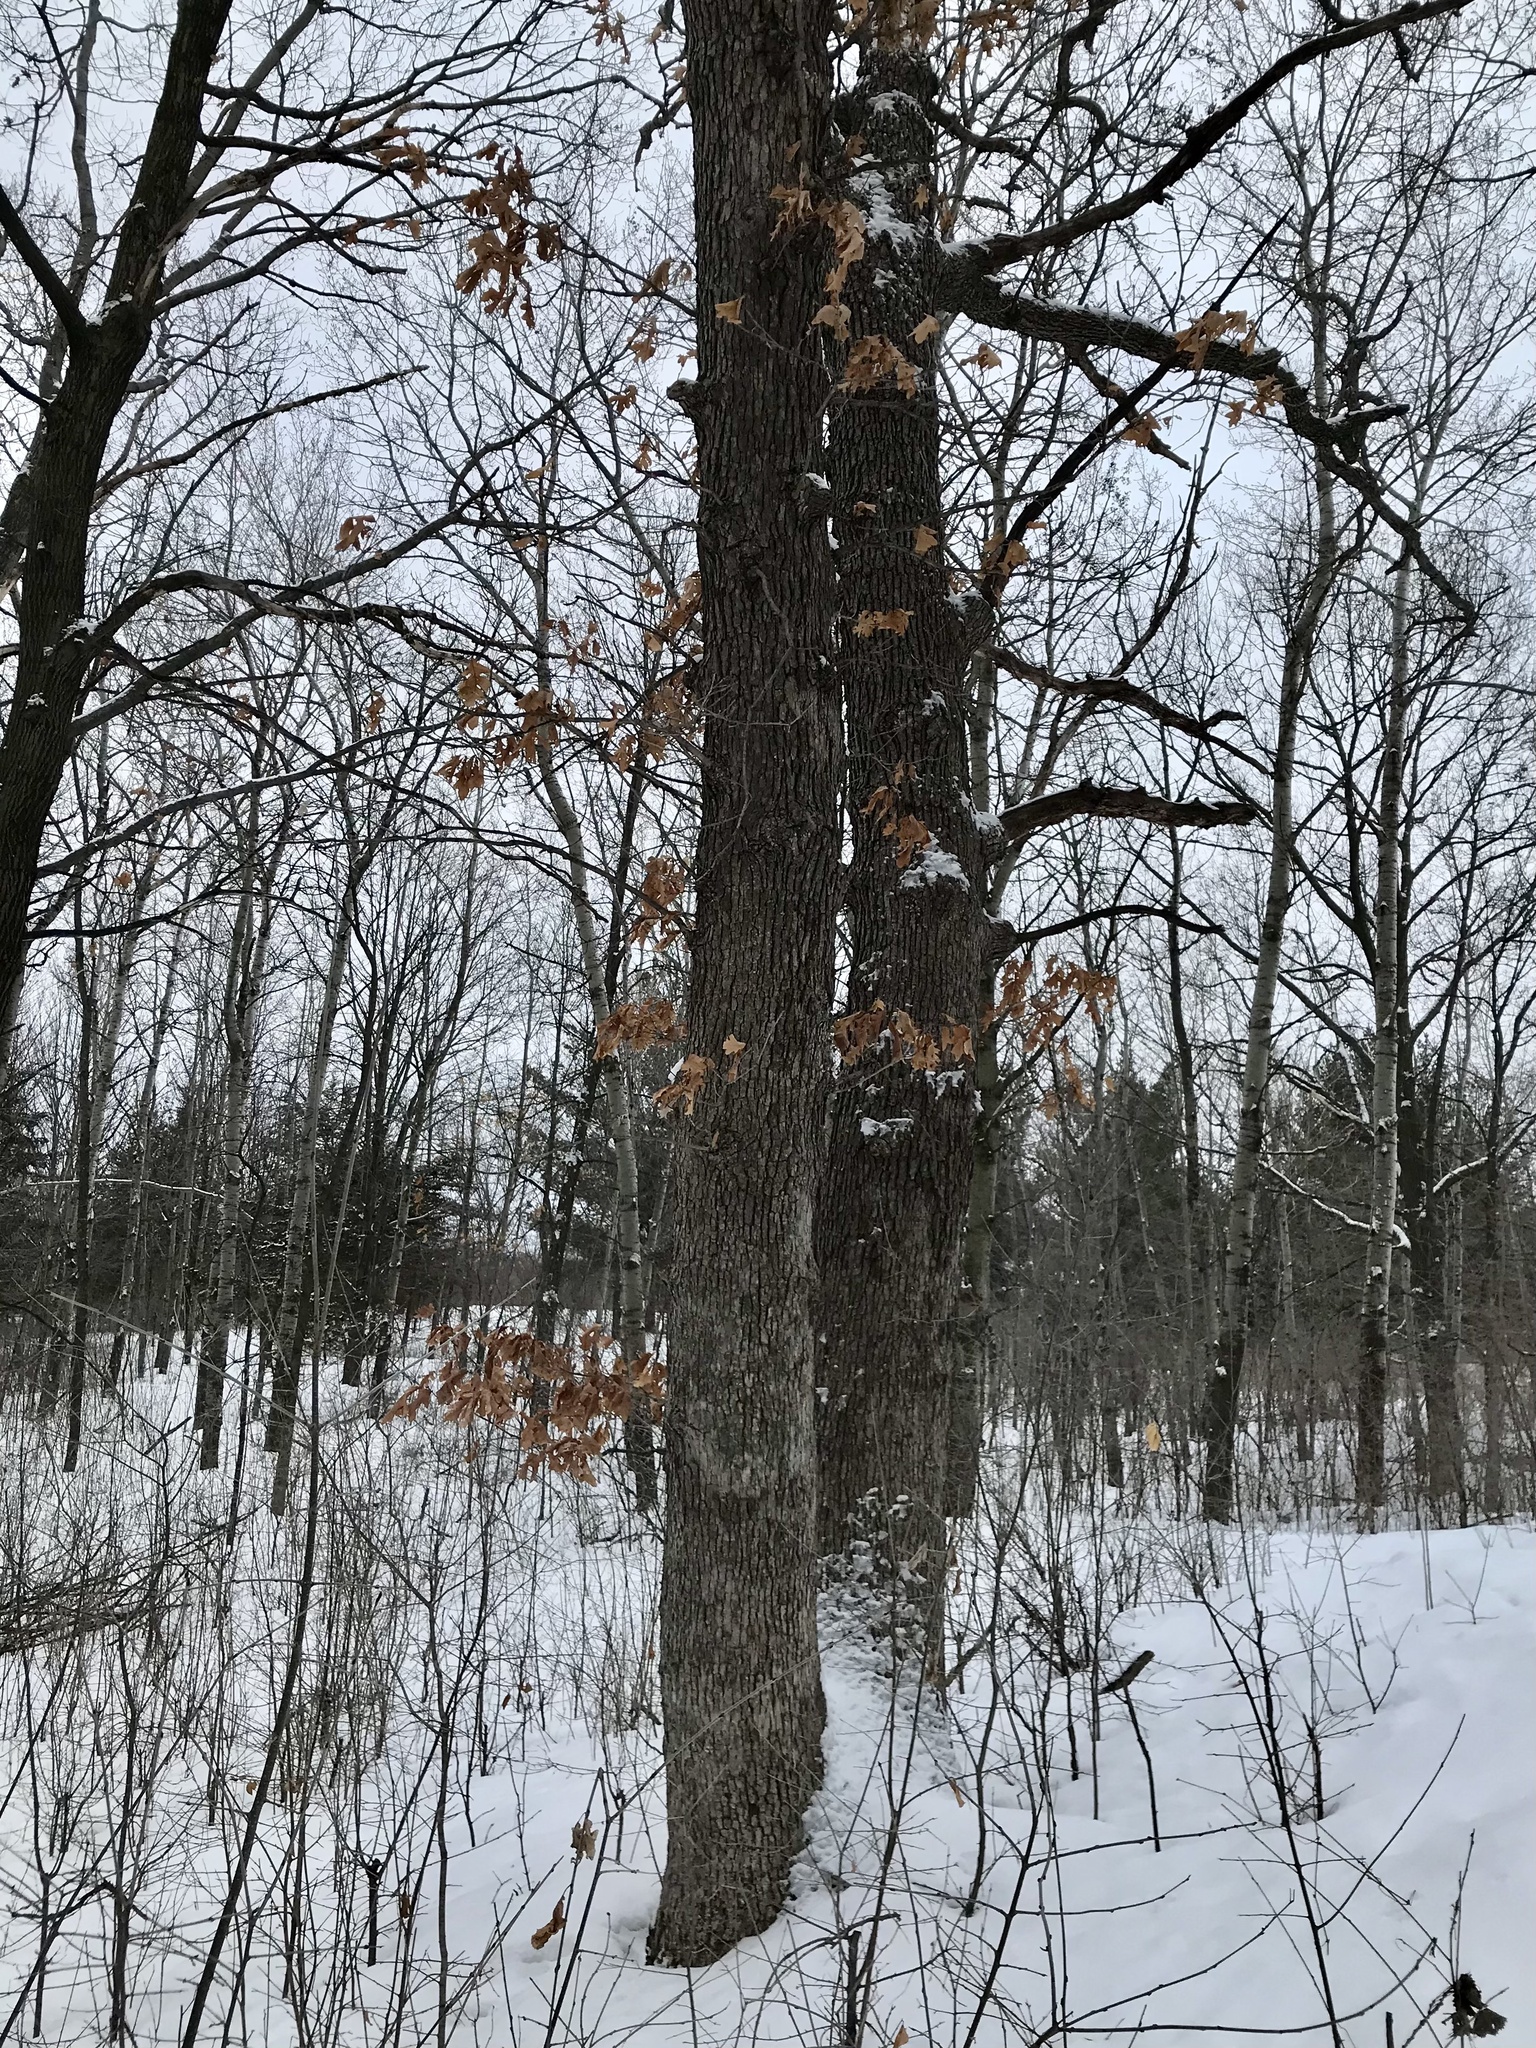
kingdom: Plantae
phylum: Tracheophyta
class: Magnoliopsida
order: Fagales
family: Fagaceae
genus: Quercus
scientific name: Quercus alba
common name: White oak
